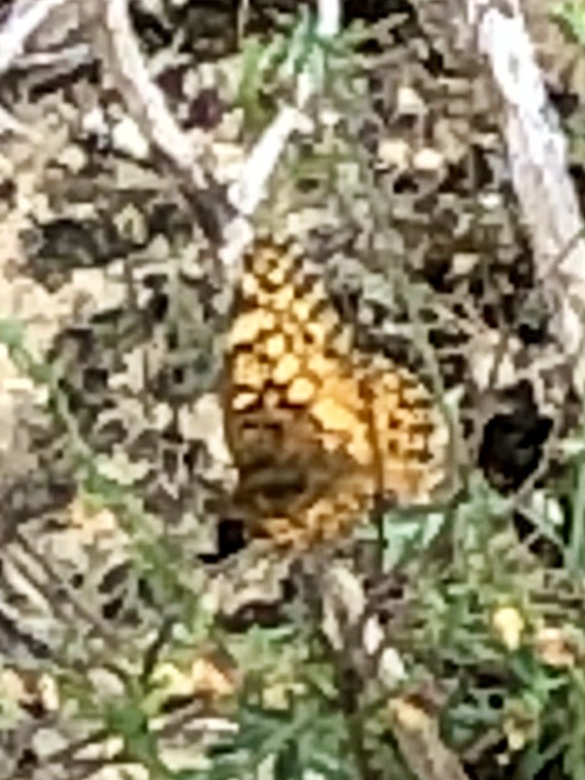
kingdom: Animalia
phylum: Arthropoda
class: Insecta
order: Lepidoptera
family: Nymphalidae
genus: Euptoieta
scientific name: Euptoieta claudia
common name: Variegated fritillary
